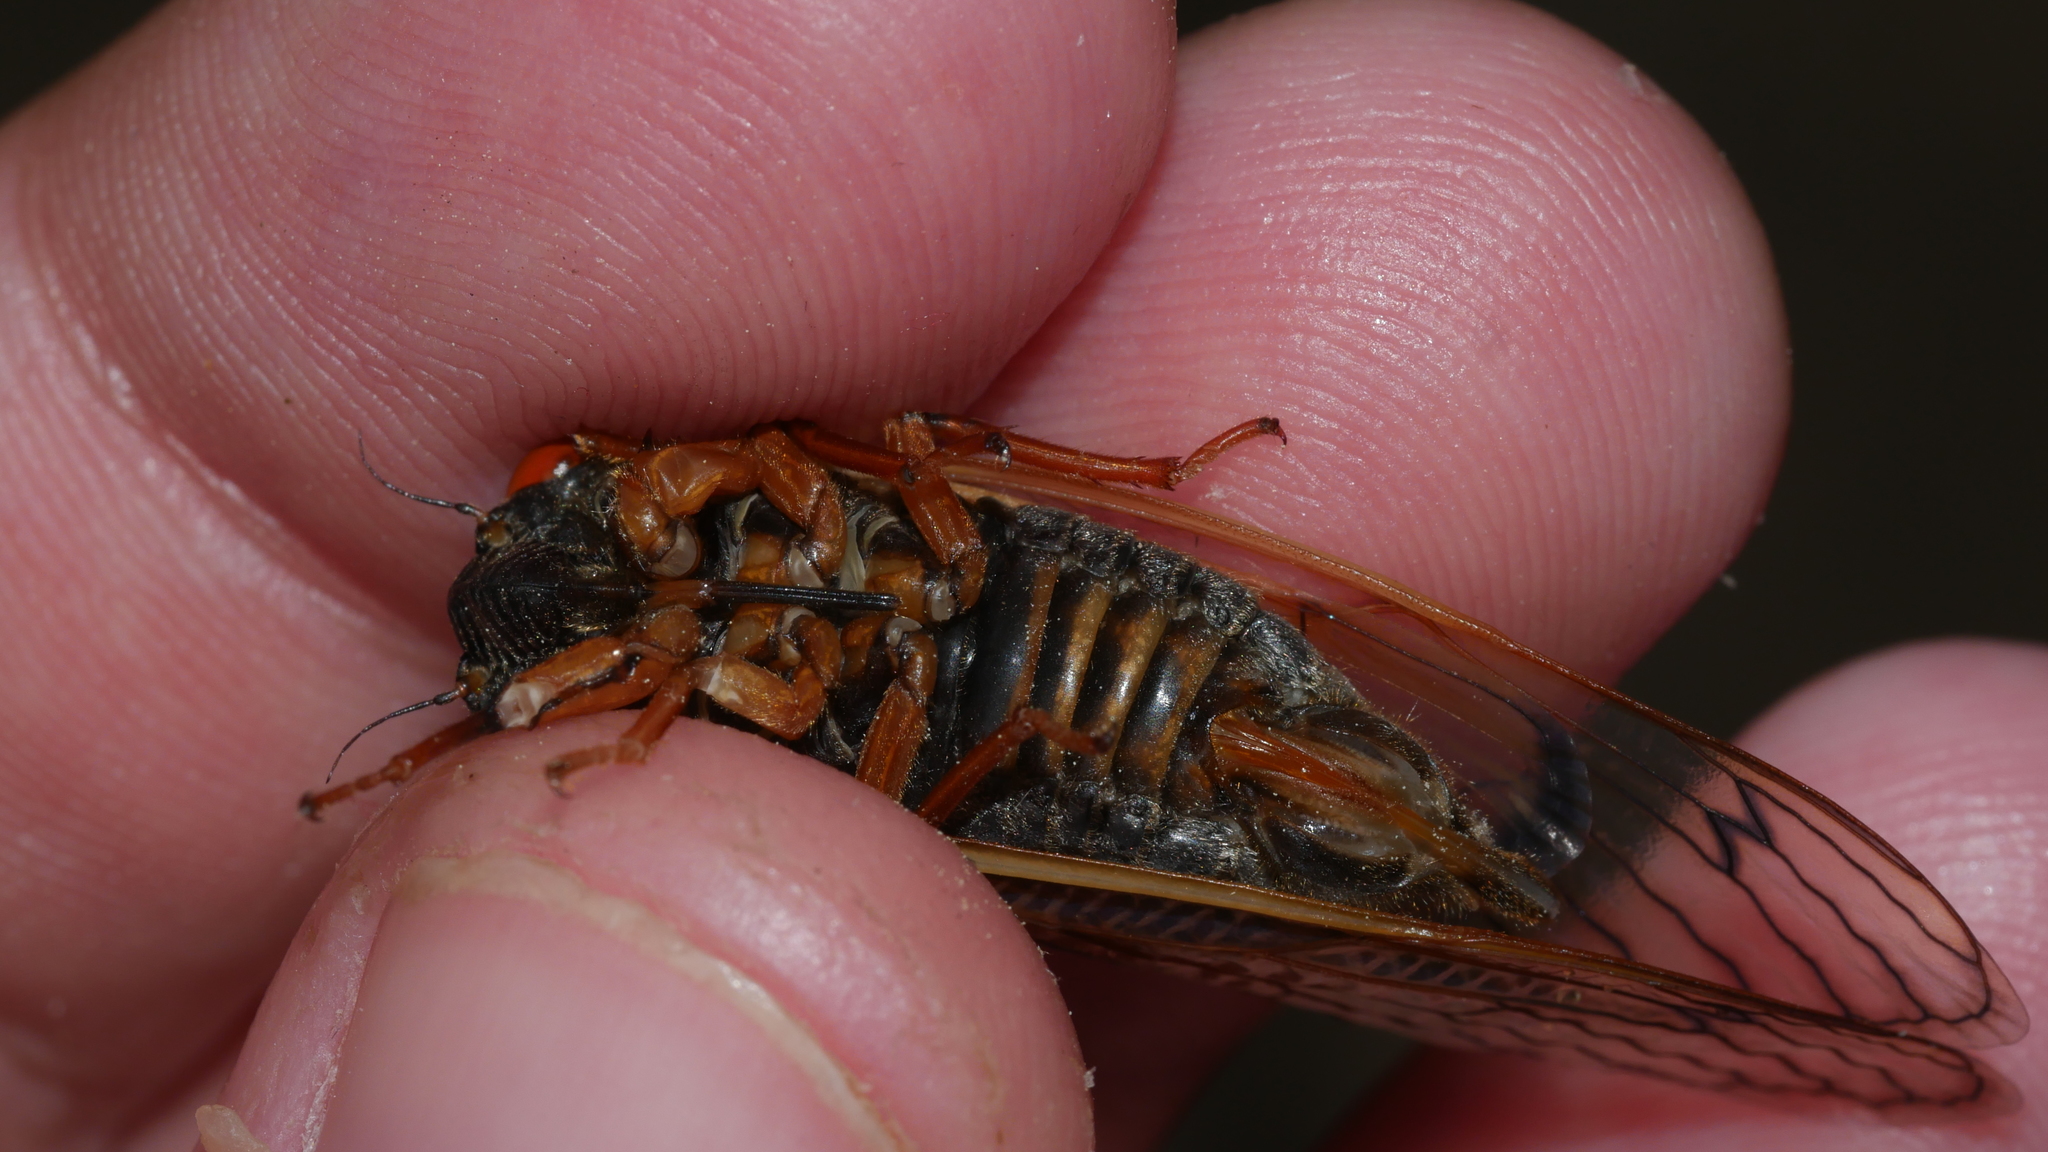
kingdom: Animalia
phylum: Arthropoda
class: Insecta
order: Hemiptera
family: Cicadidae
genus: Magicicada
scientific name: Magicicada septendecula
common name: Decula periodical cicada
